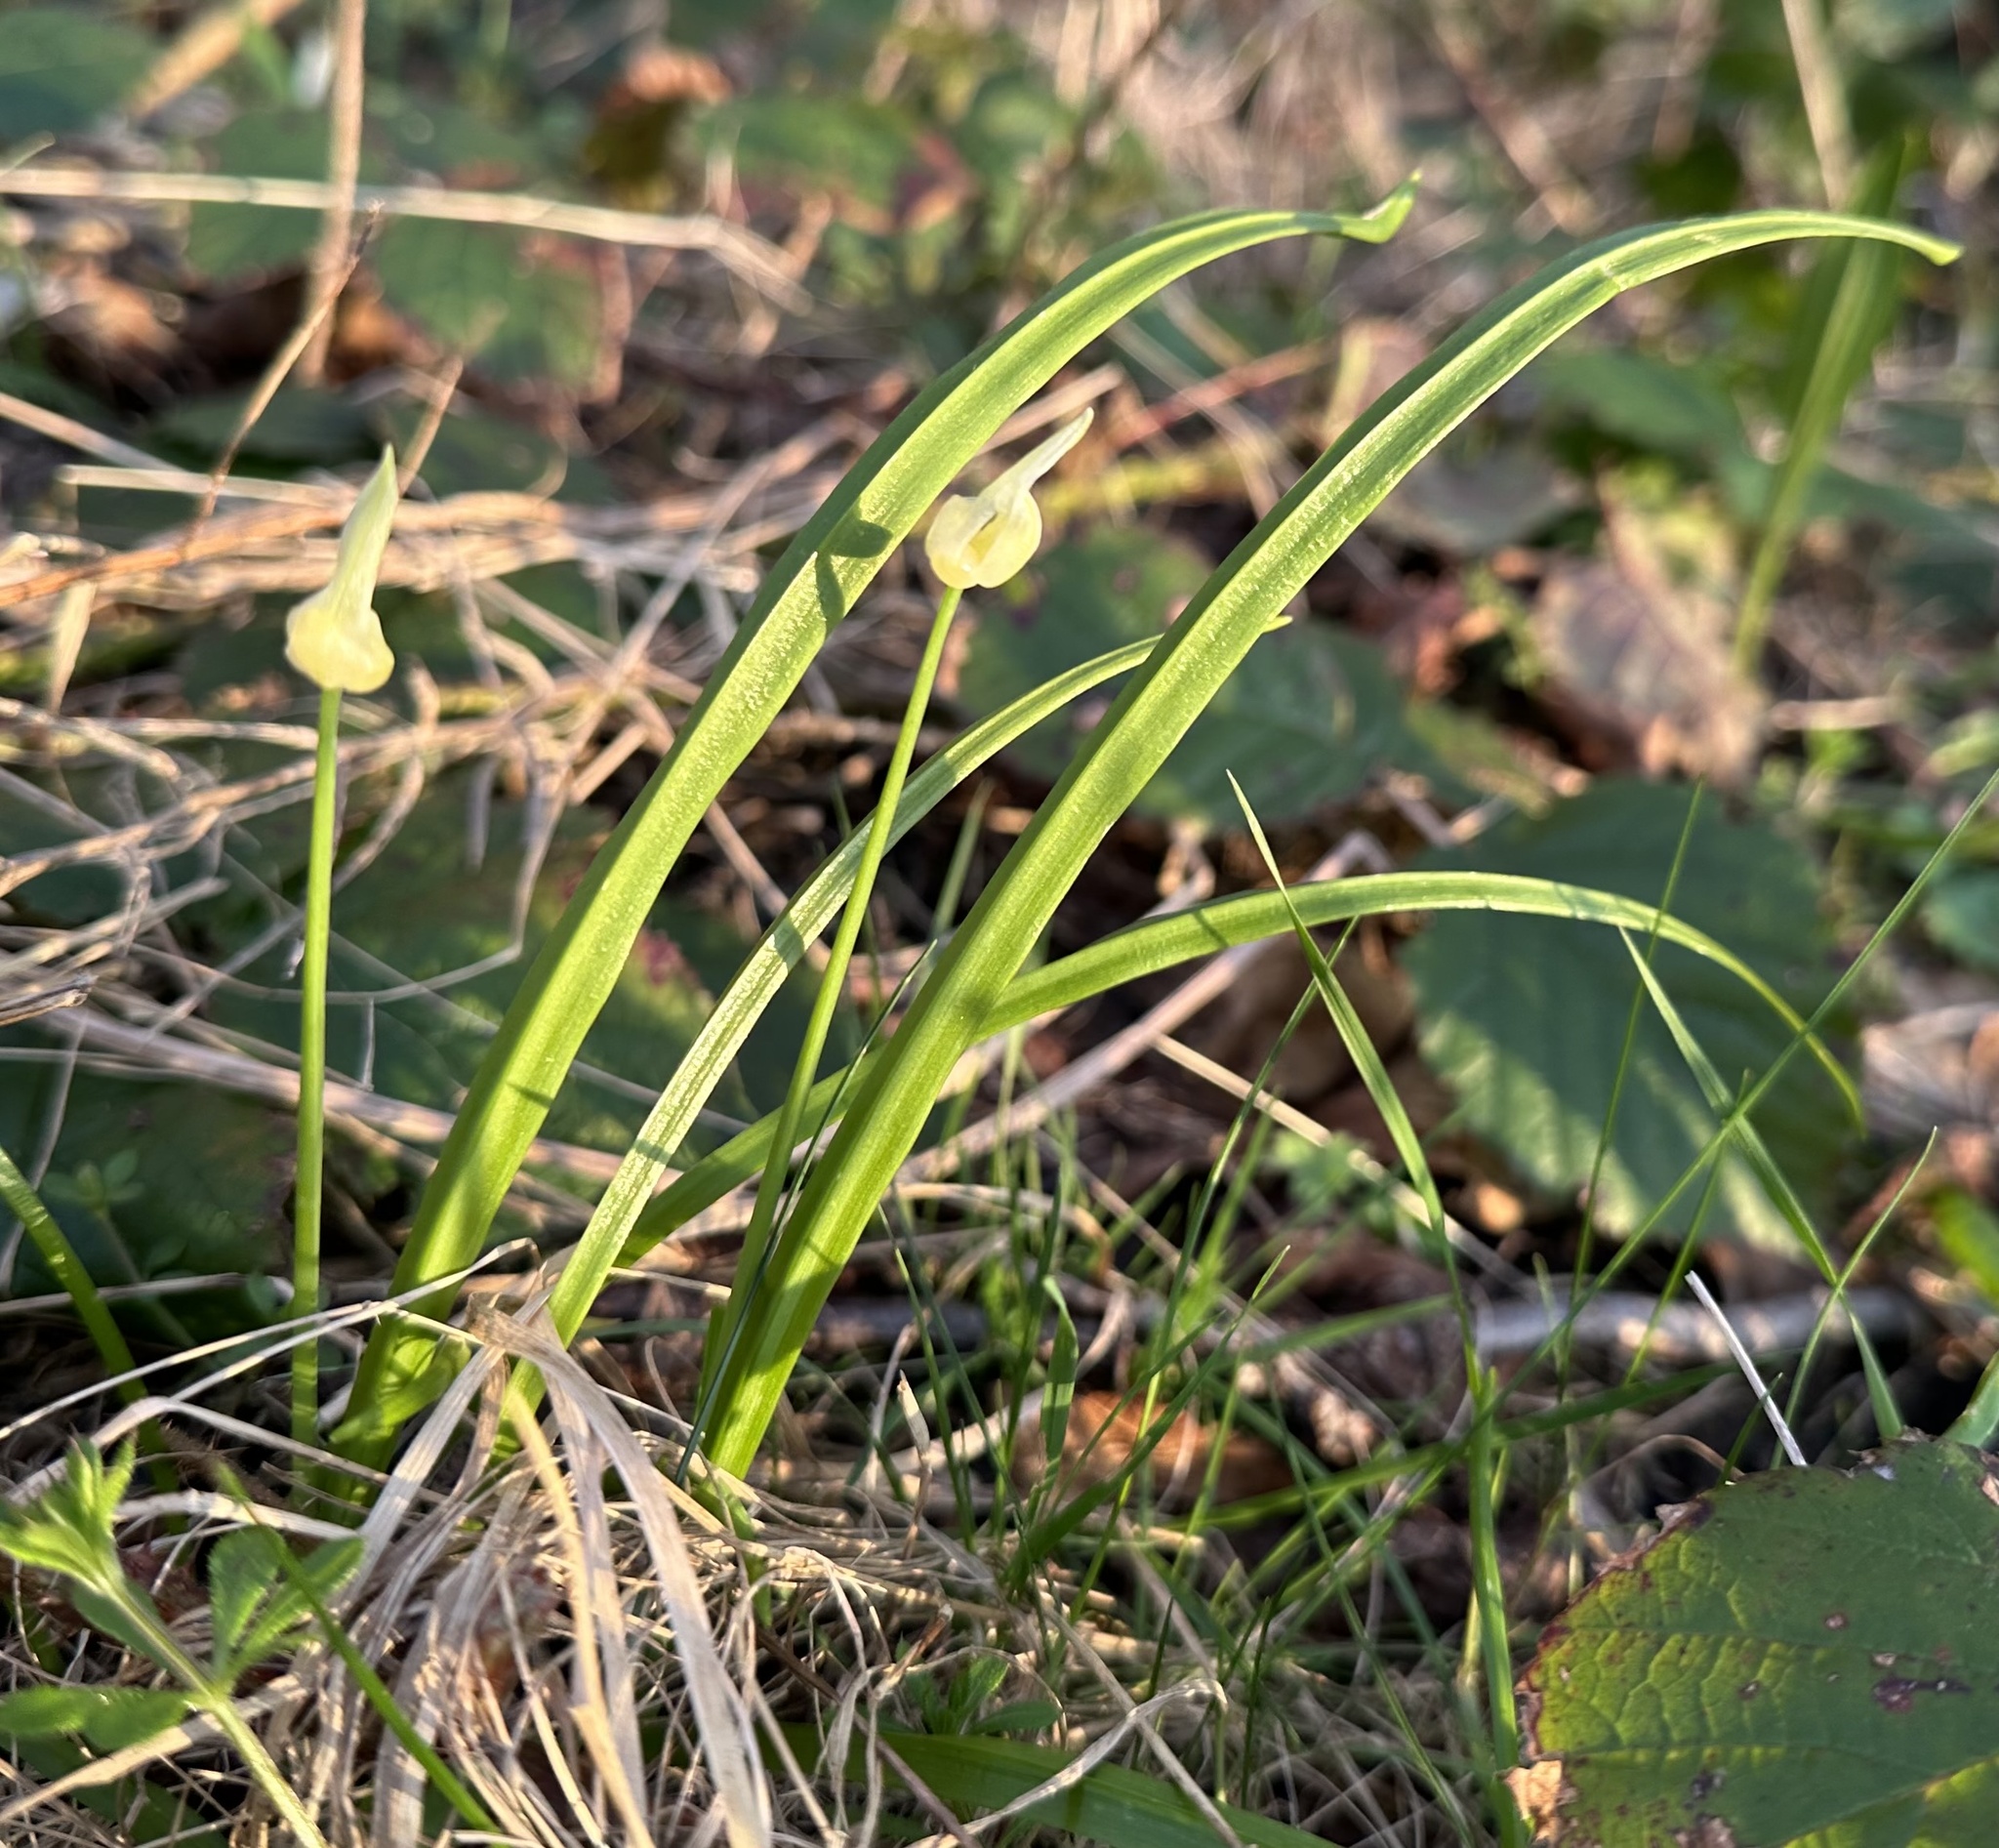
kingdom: Plantae
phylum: Tracheophyta
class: Liliopsida
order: Asparagales
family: Amaryllidaceae
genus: Allium
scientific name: Allium paradoxum
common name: Few-flowered garlic
